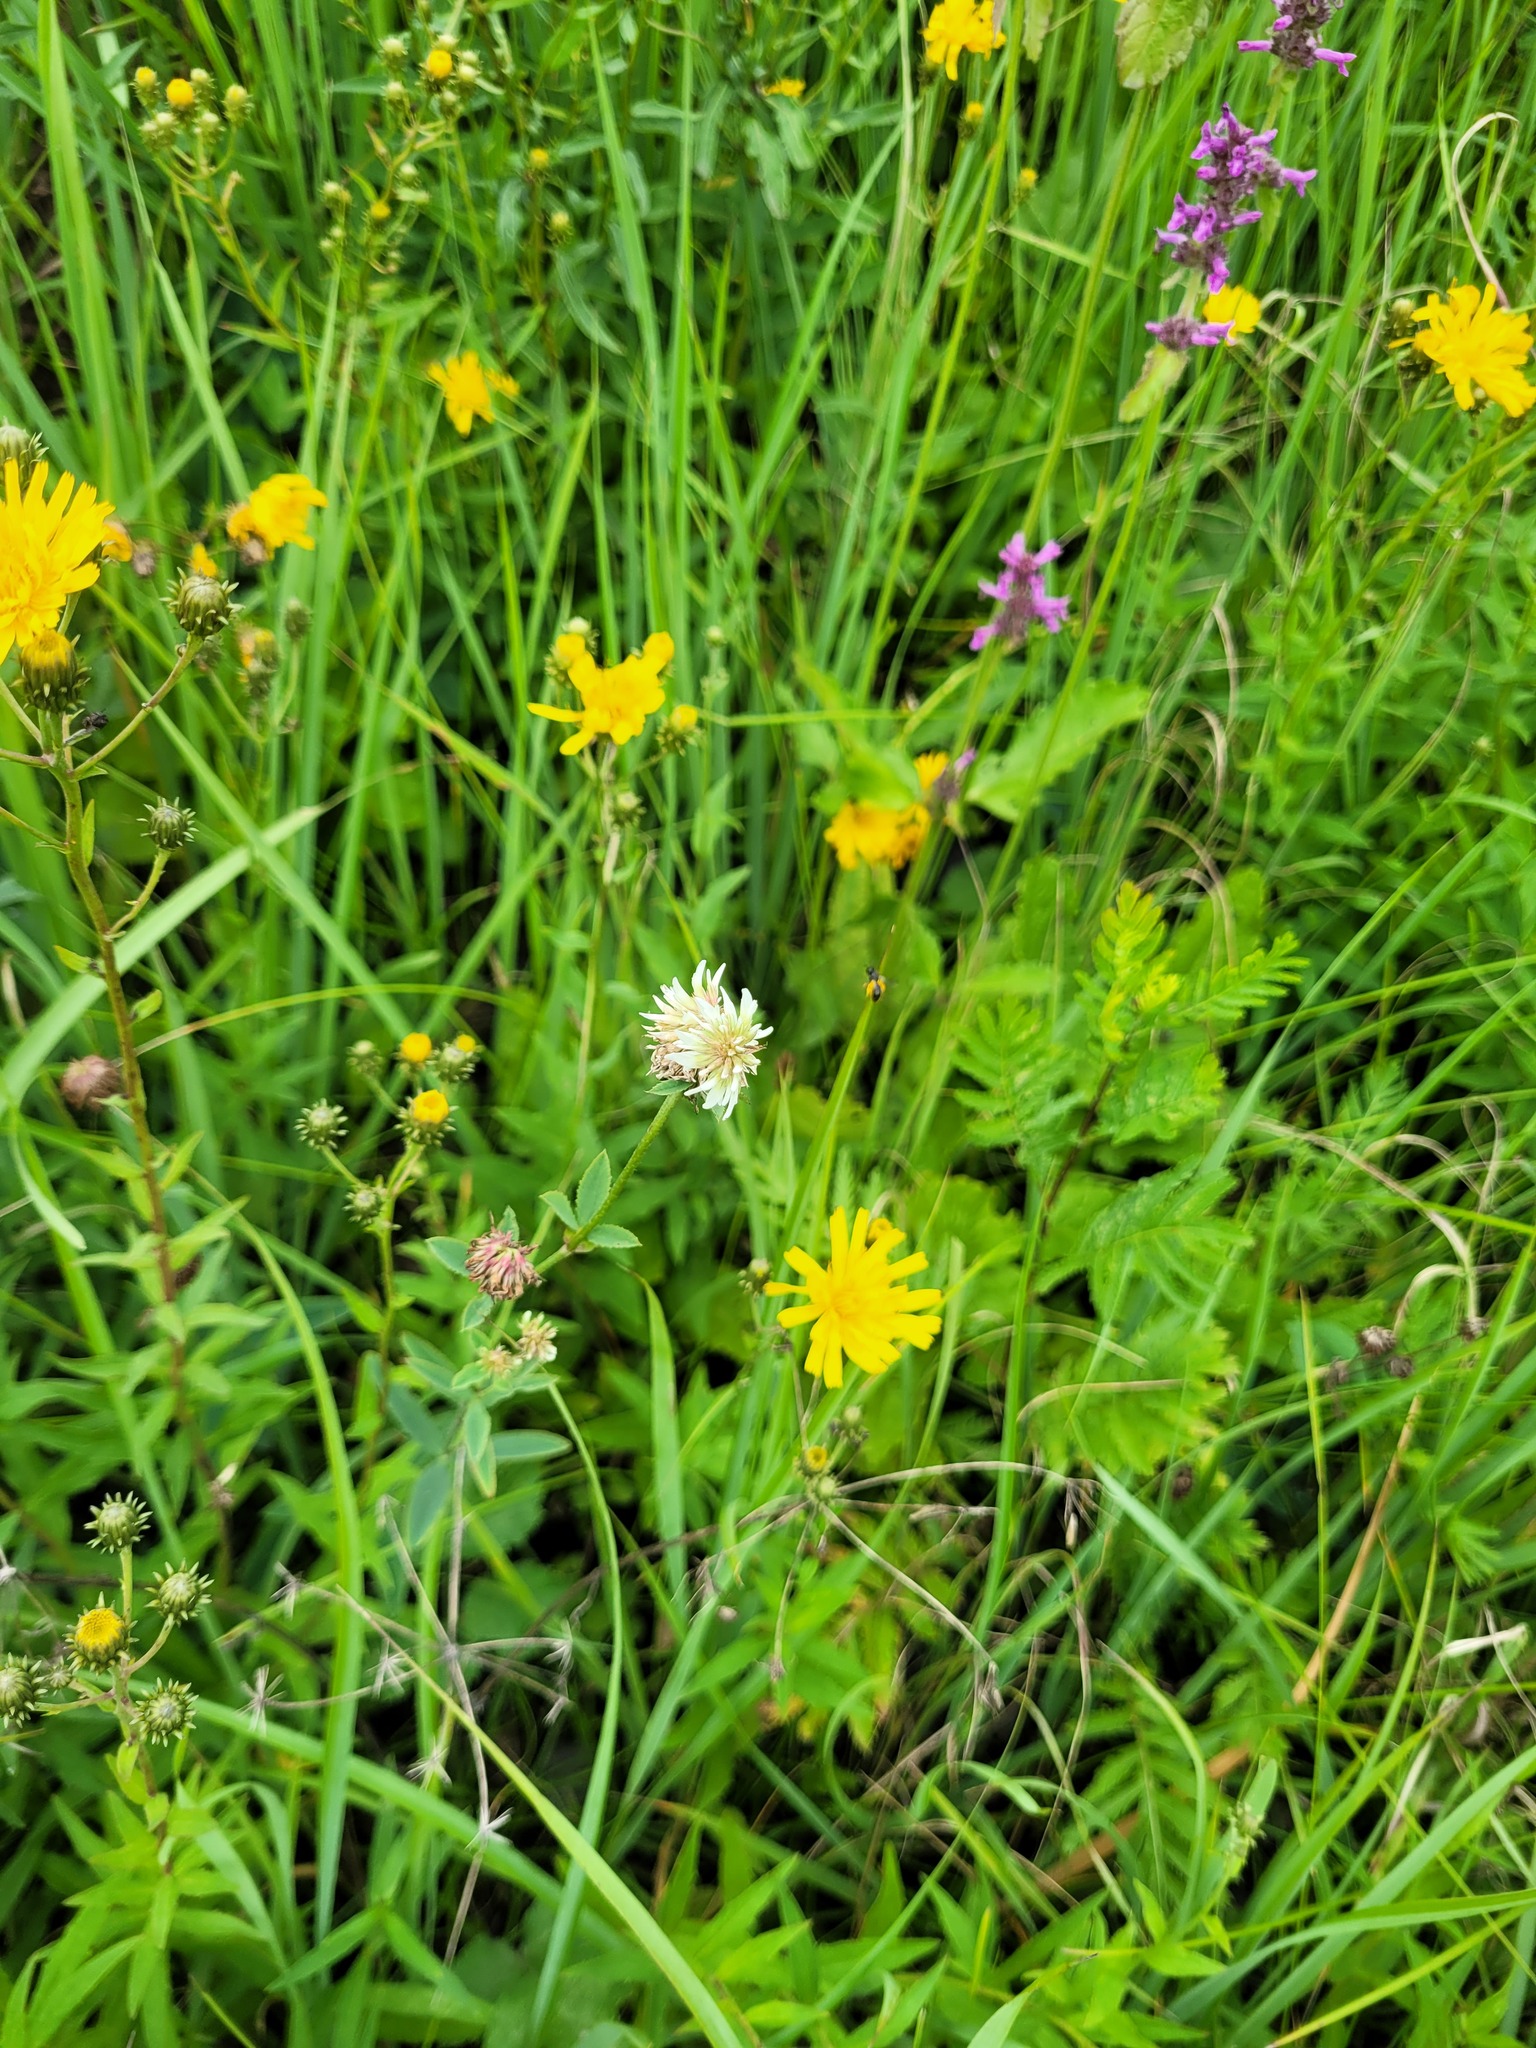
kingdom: Plantae
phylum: Tracheophyta
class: Magnoliopsida
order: Fabales
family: Fabaceae
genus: Trifolium
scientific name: Trifolium montanum
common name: Mountain clover
